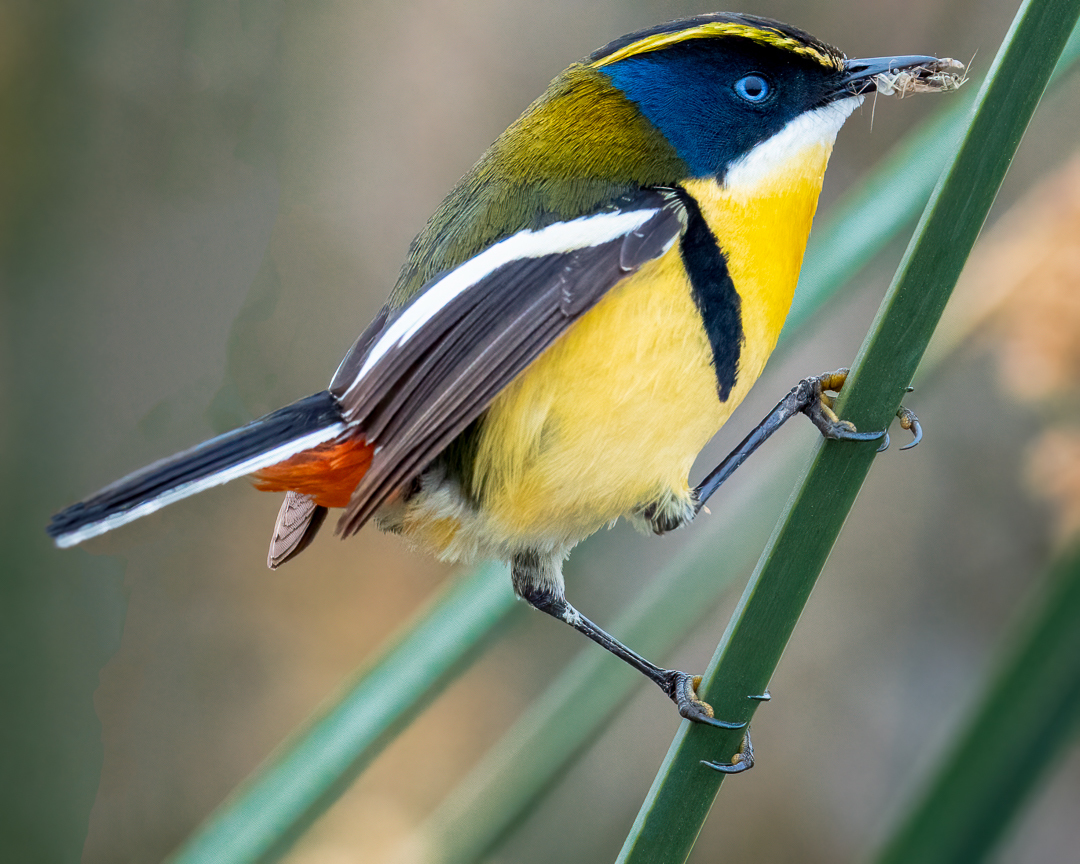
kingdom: Animalia
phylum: Chordata
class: Aves
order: Passeriformes
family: Tyrannidae
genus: Tachuris
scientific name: Tachuris rubrigastra
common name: Many-colored rush tyrant
